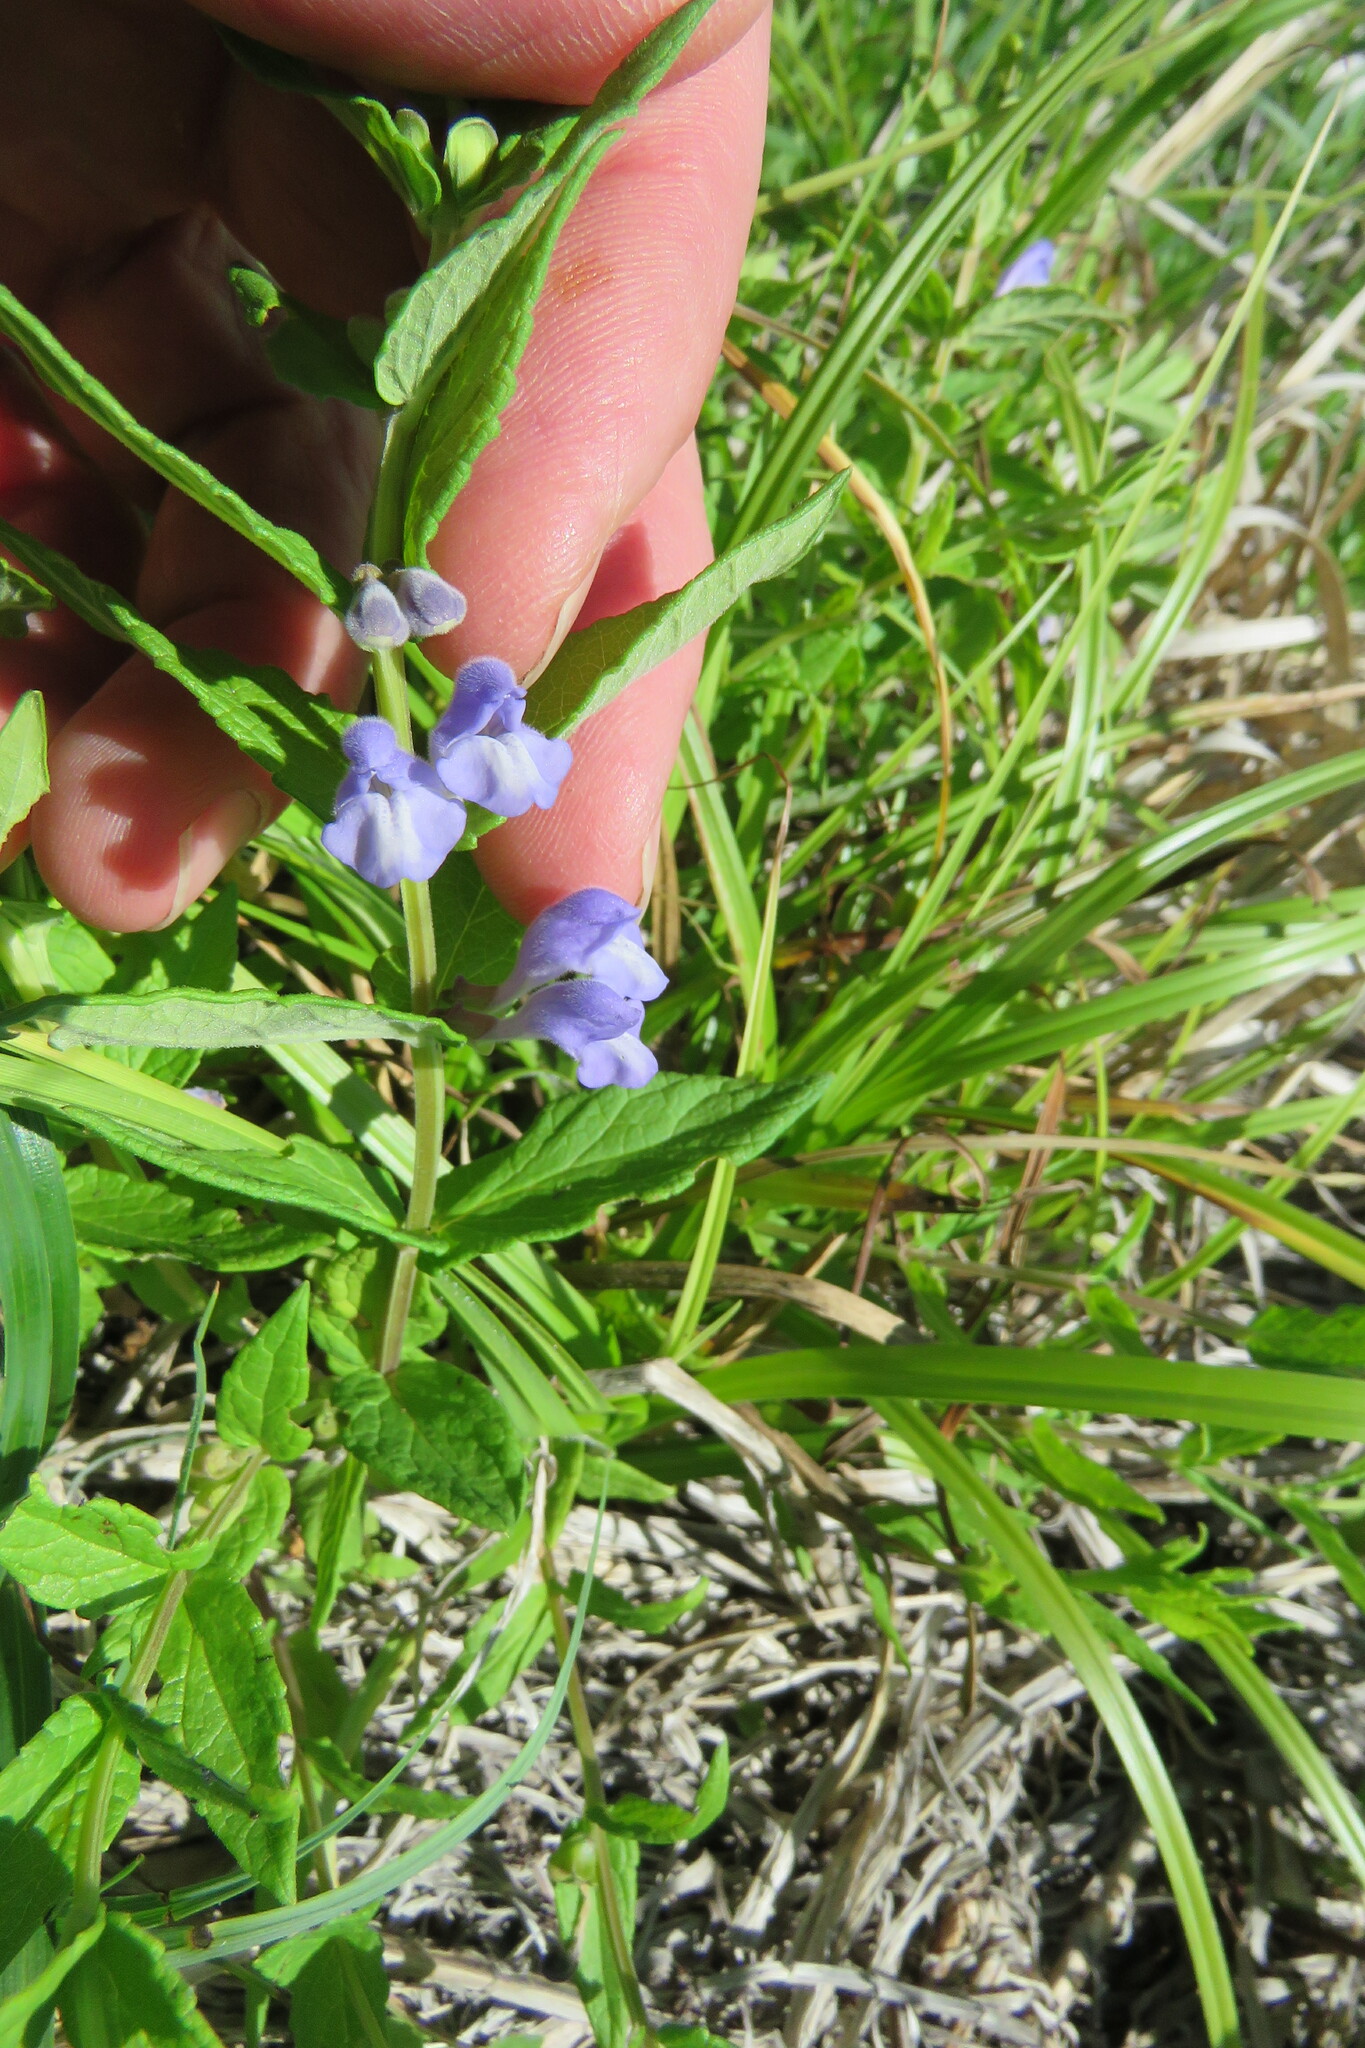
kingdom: Plantae
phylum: Tracheophyta
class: Magnoliopsida
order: Lamiales
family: Lamiaceae
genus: Scutellaria
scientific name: Scutellaria galericulata
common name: Skullcap
